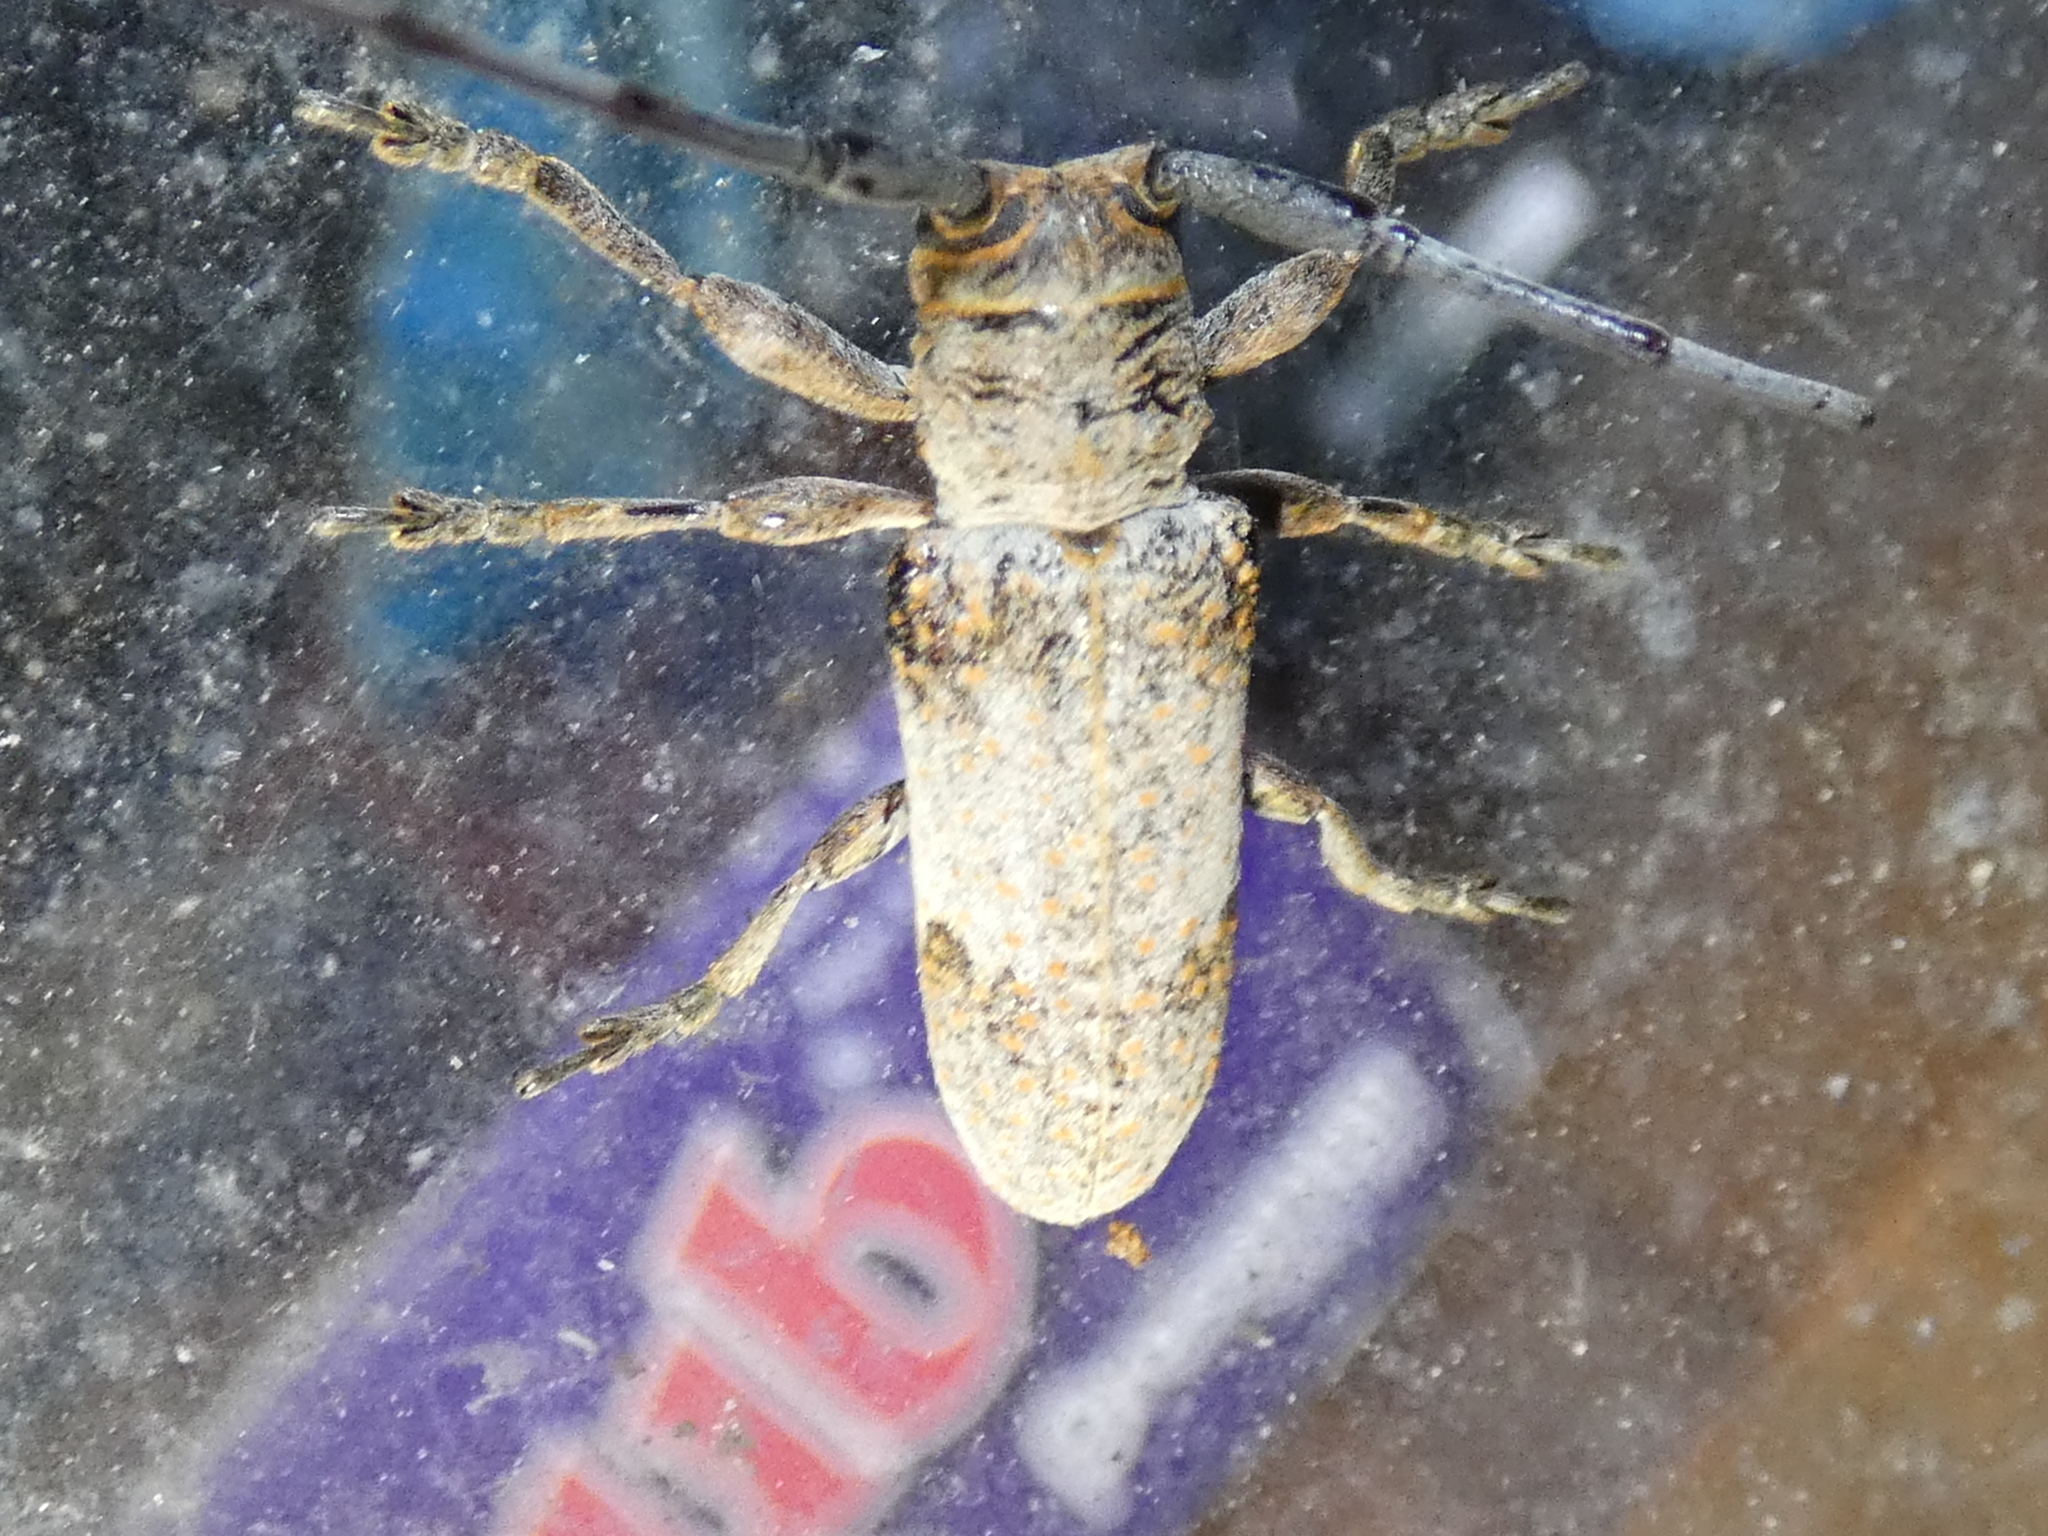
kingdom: Animalia
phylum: Arthropoda
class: Insecta
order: Coleoptera
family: Cerambycidae
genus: Oncideres
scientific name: Oncideres cingulata
